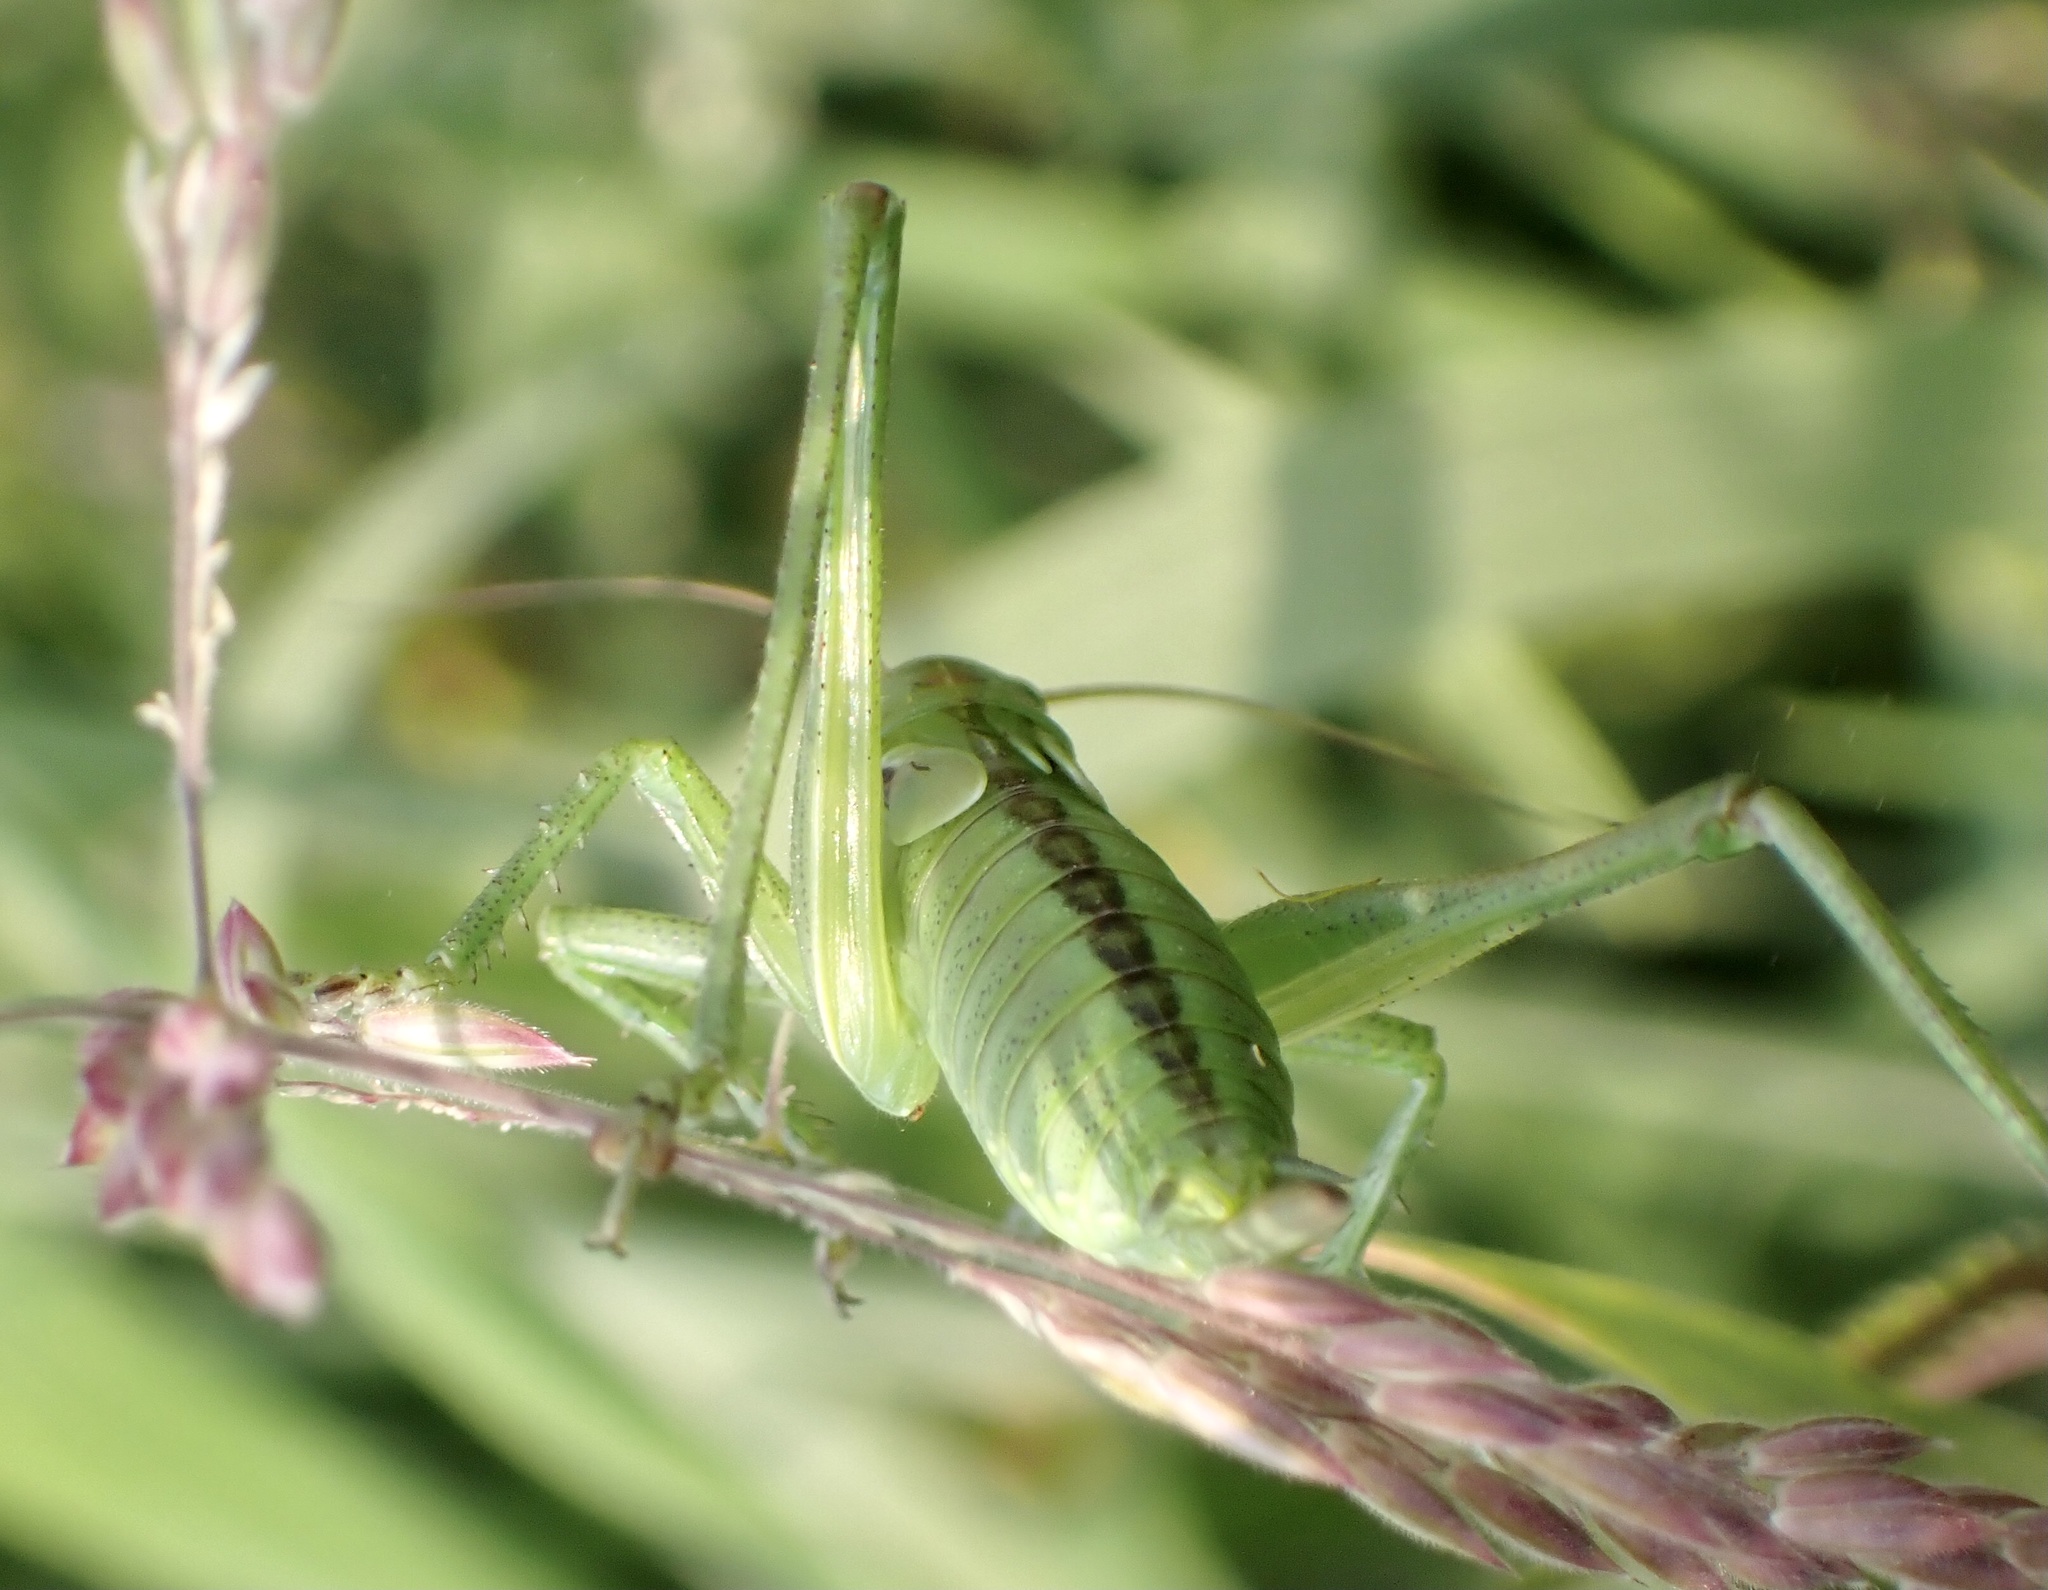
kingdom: Animalia
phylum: Arthropoda
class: Insecta
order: Orthoptera
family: Tettigoniidae
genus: Tettigonia
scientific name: Tettigonia viridissima
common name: Great green bush-cricket
